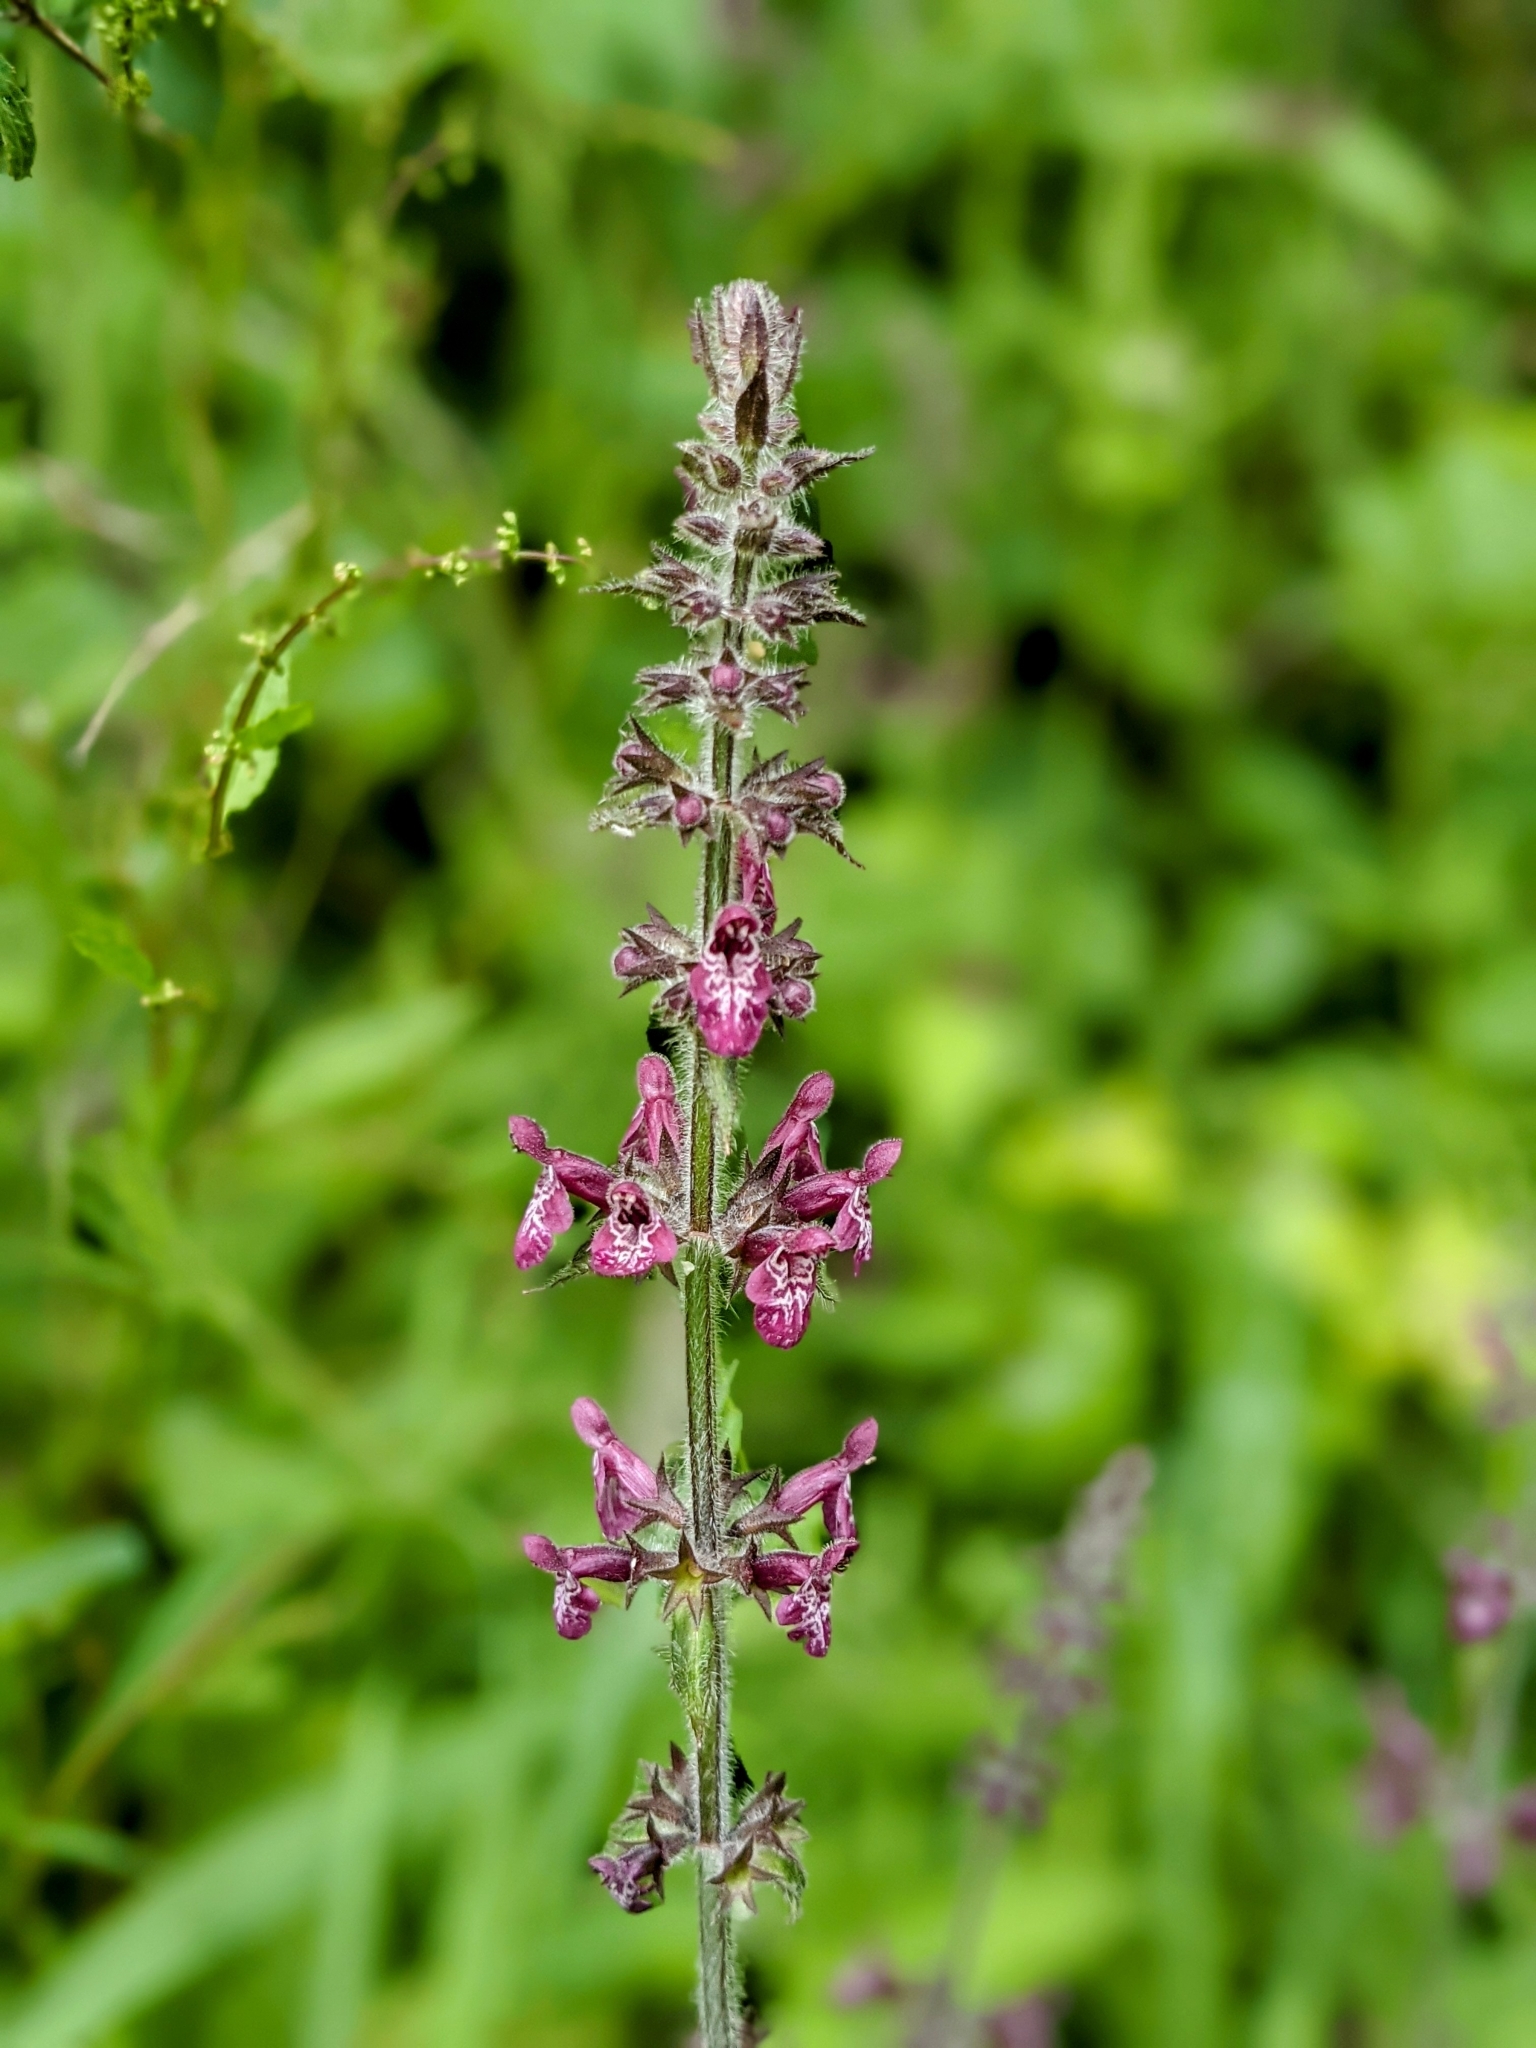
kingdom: Plantae
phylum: Tracheophyta
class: Magnoliopsida
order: Lamiales
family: Lamiaceae
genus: Stachys
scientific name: Stachys sylvatica
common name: Hedge woundwort
